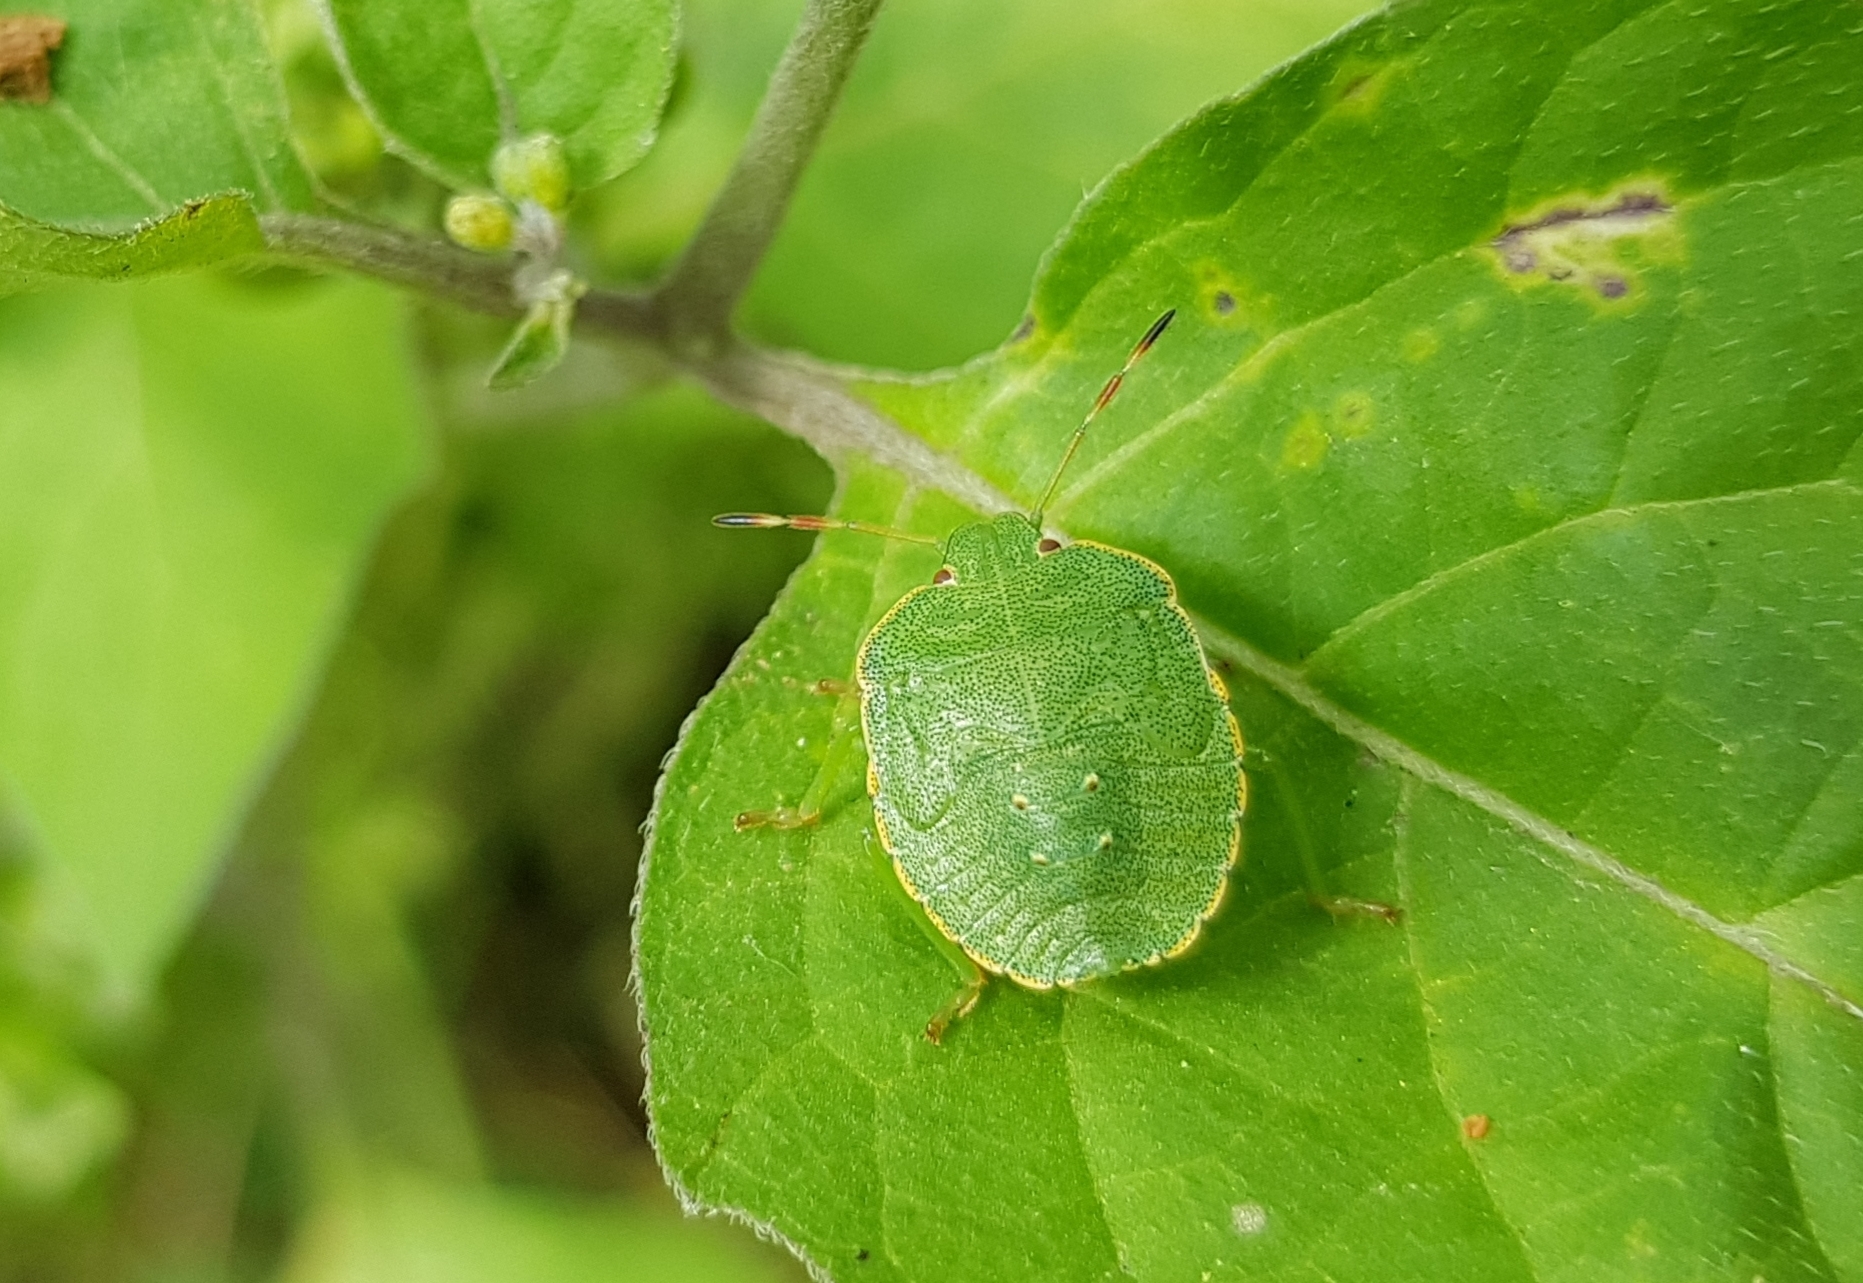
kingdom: Animalia
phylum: Arthropoda
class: Insecta
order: Hemiptera
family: Pentatomidae
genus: Palomena
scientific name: Palomena prasina
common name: Green shieldbug
